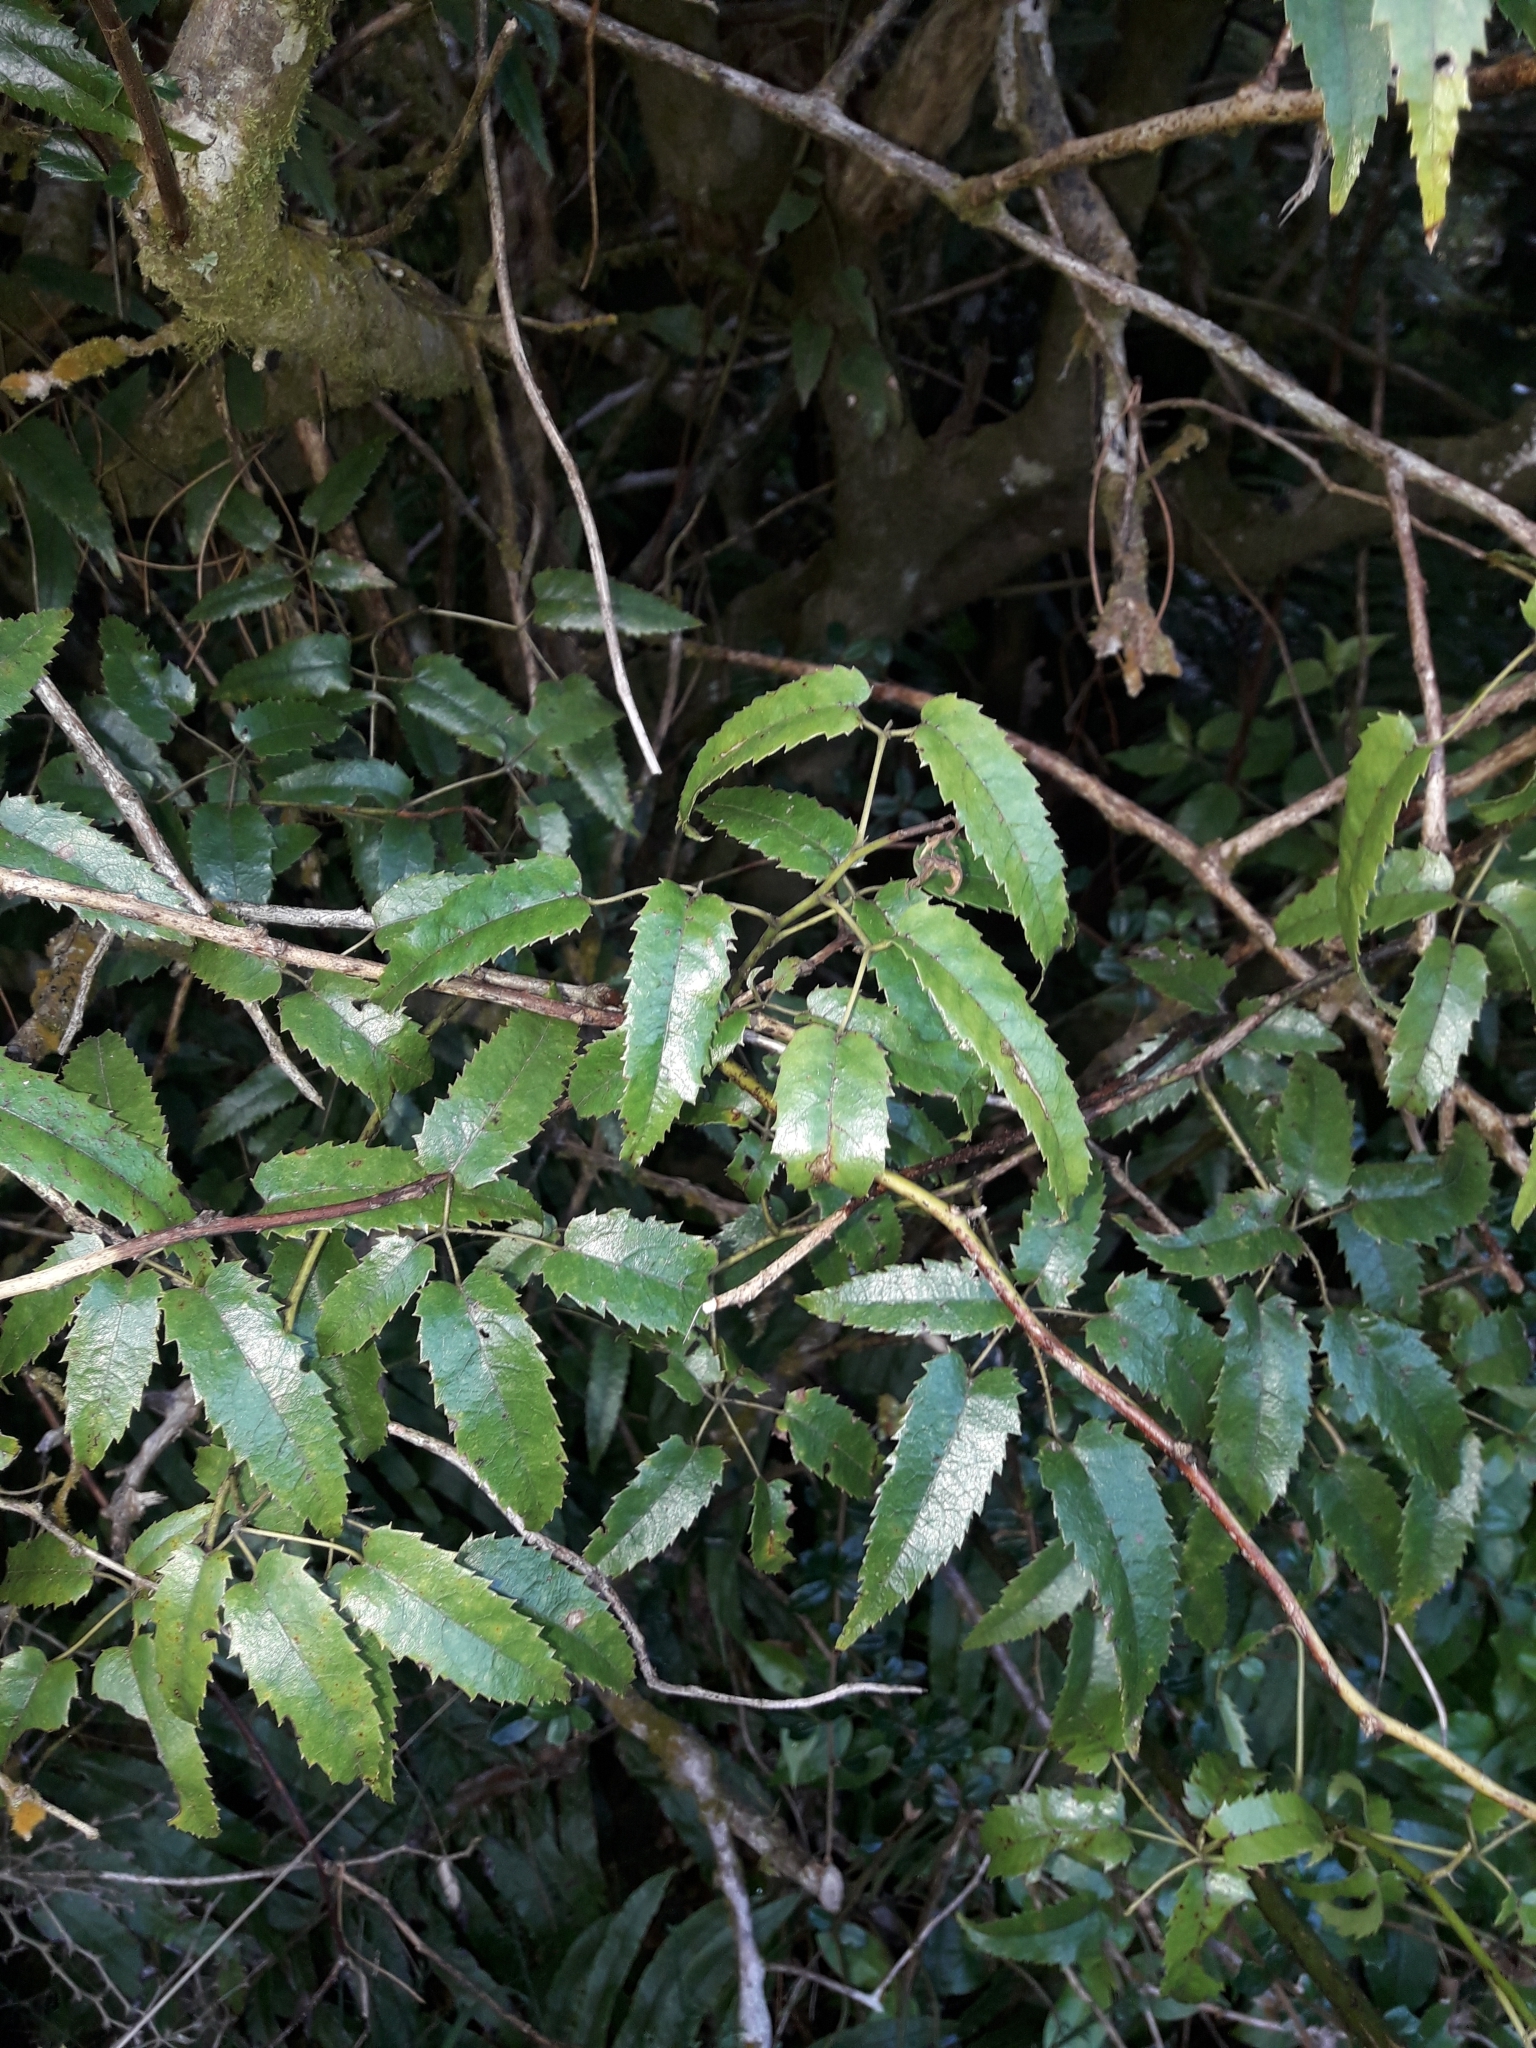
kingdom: Plantae
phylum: Tracheophyta
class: Magnoliopsida
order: Rosales
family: Rosaceae
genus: Rubus
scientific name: Rubus cissoides
